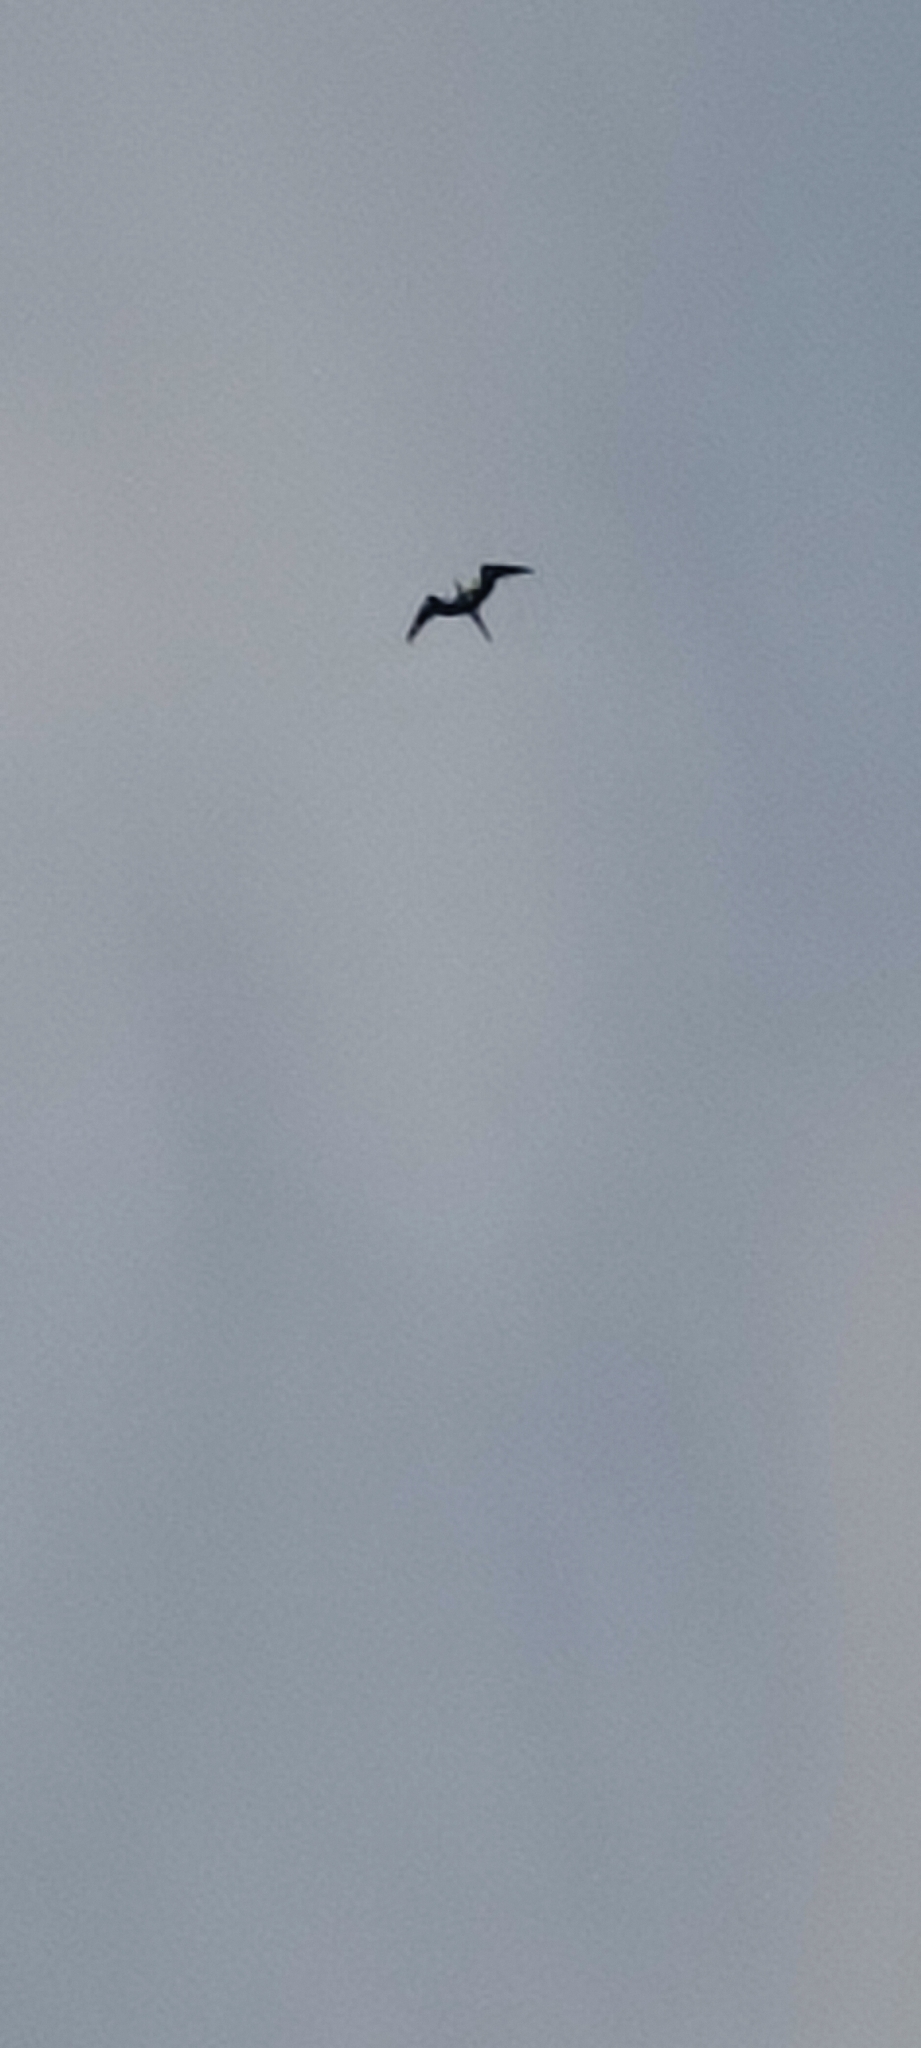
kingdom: Animalia
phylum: Chordata
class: Aves
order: Suliformes
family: Fregatidae
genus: Fregata
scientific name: Fregata magnificens
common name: Magnificent frigatebird
